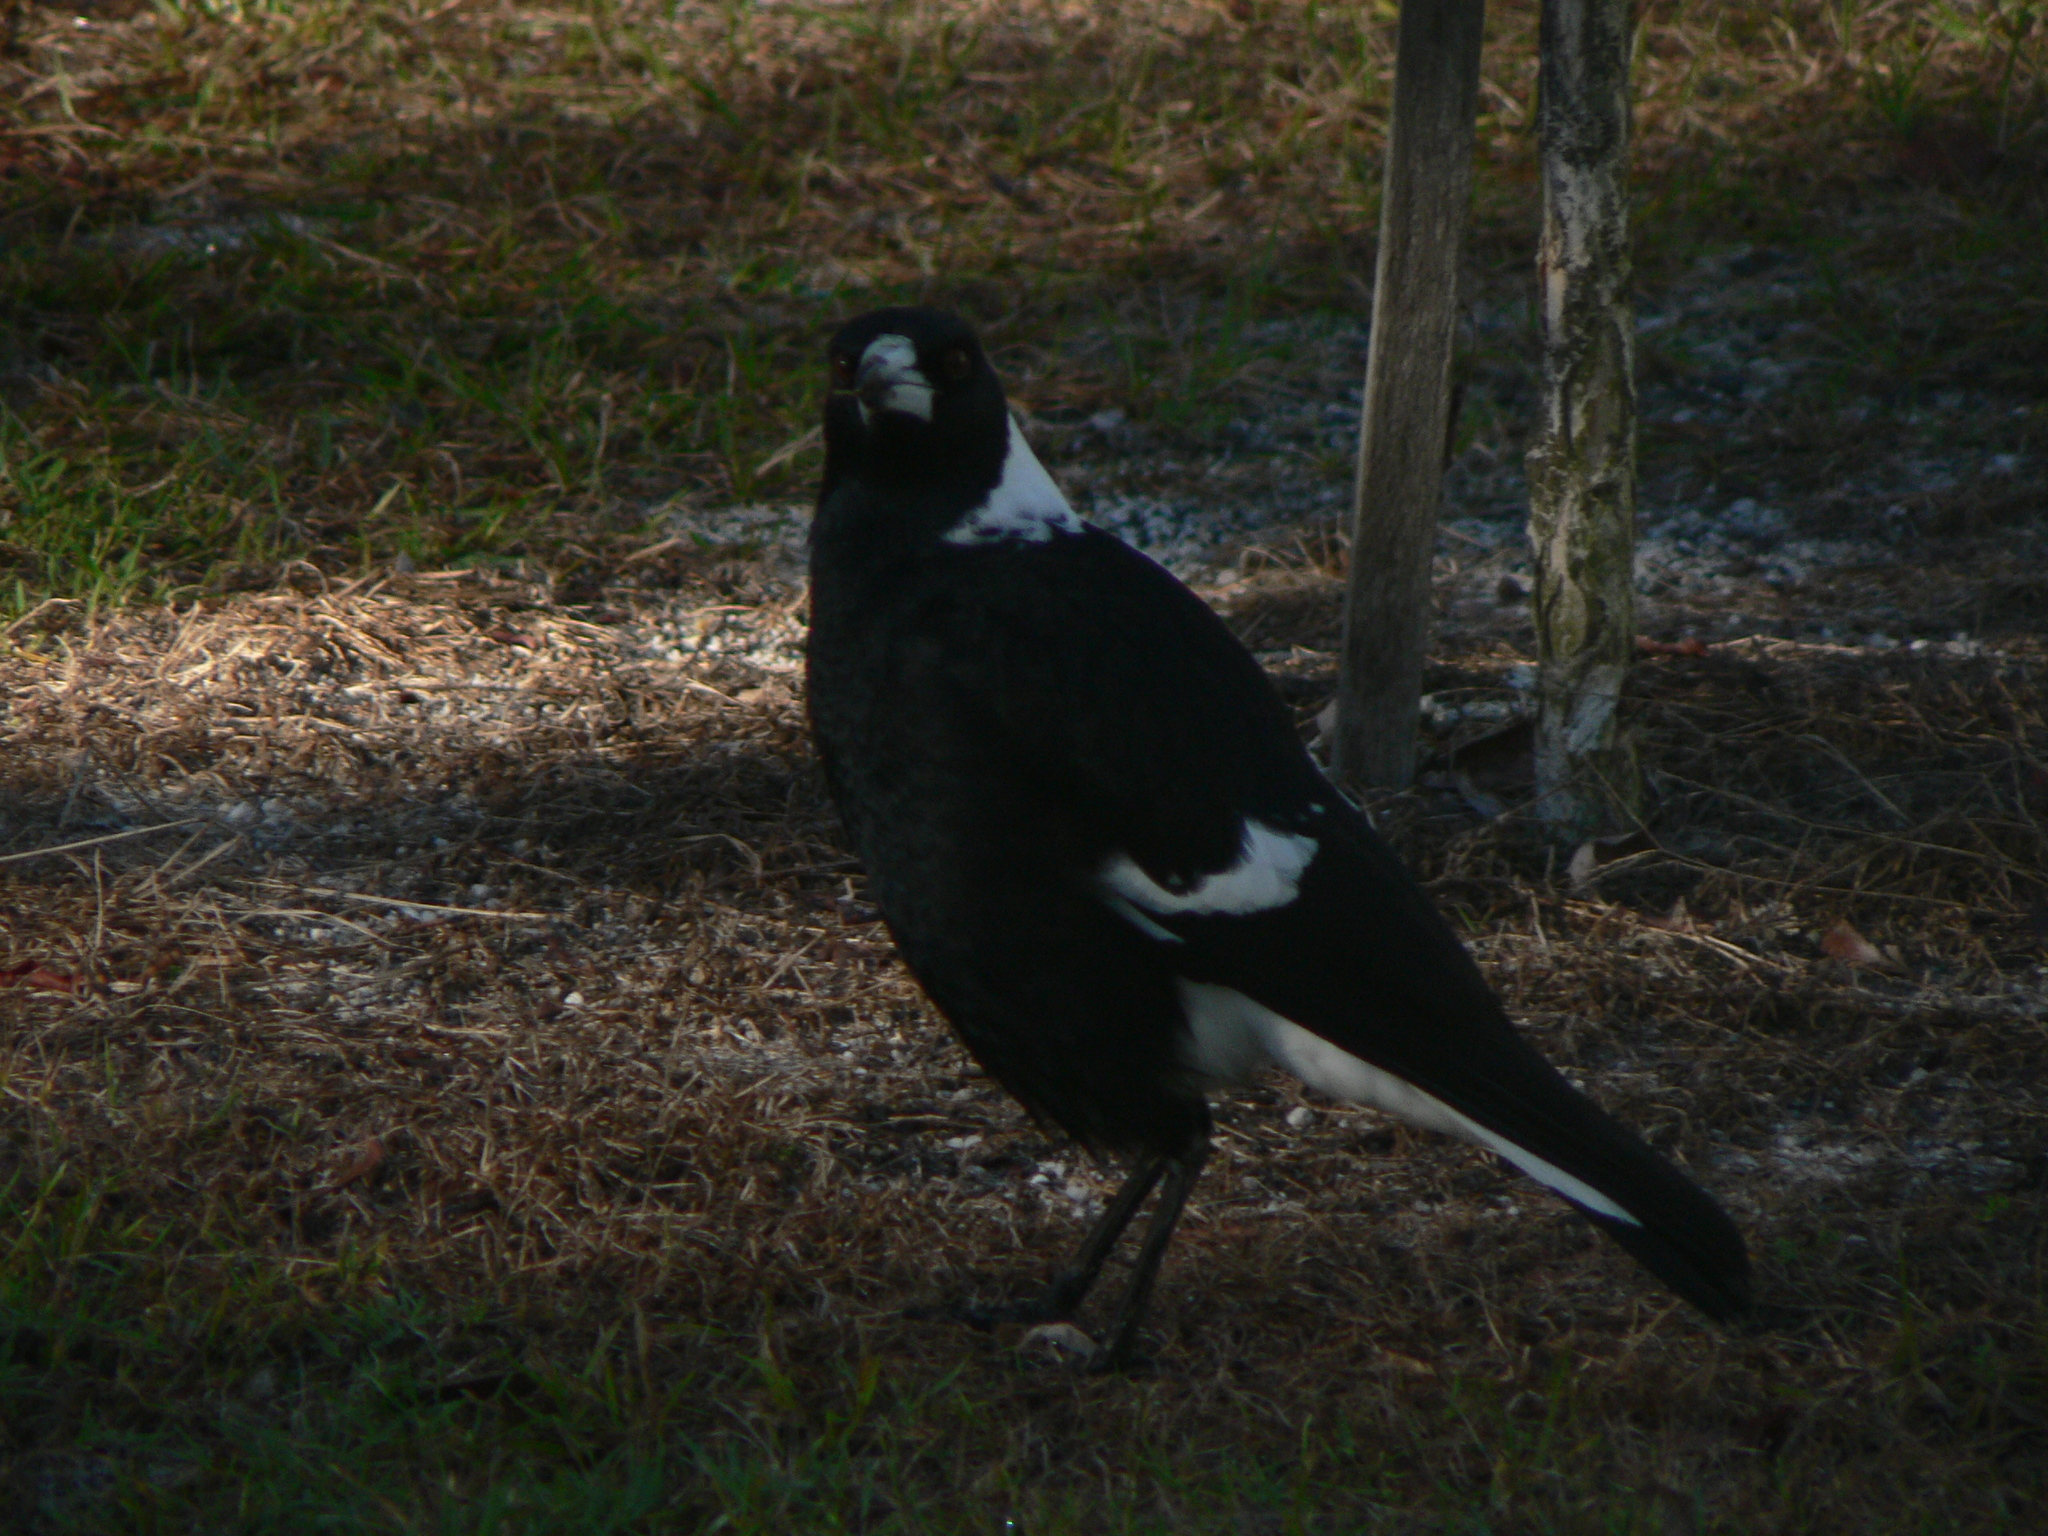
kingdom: Animalia
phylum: Chordata
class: Aves
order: Passeriformes
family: Cracticidae
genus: Gymnorhina
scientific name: Gymnorhina tibicen
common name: Australian magpie
